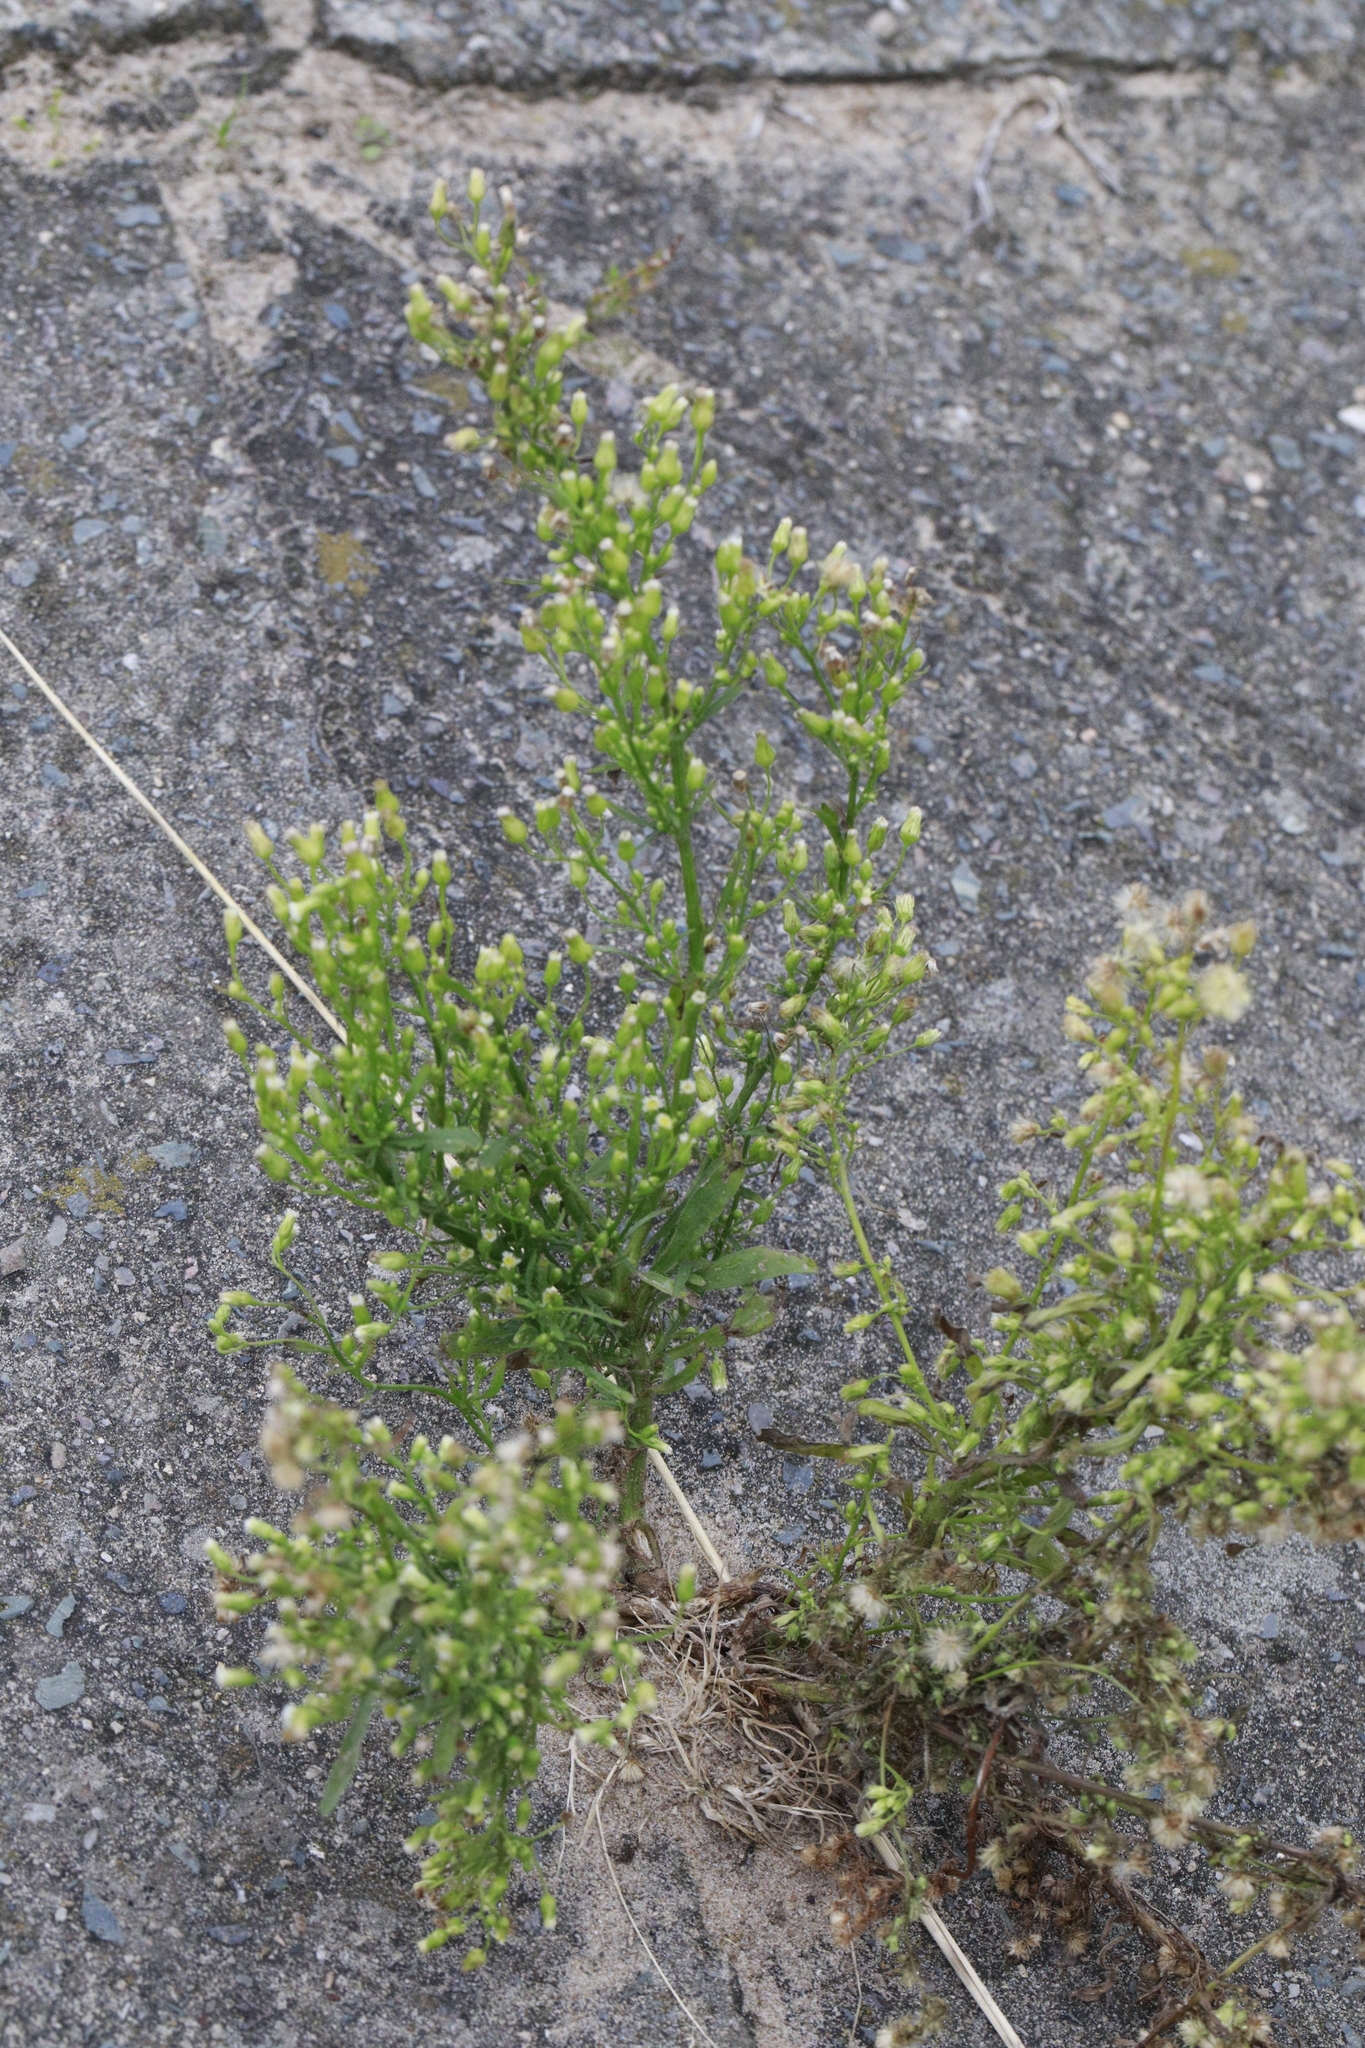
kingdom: Plantae
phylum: Tracheophyta
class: Magnoliopsida
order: Asterales
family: Asteraceae
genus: Erigeron
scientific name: Erigeron canadensis
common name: Canadian fleabane
